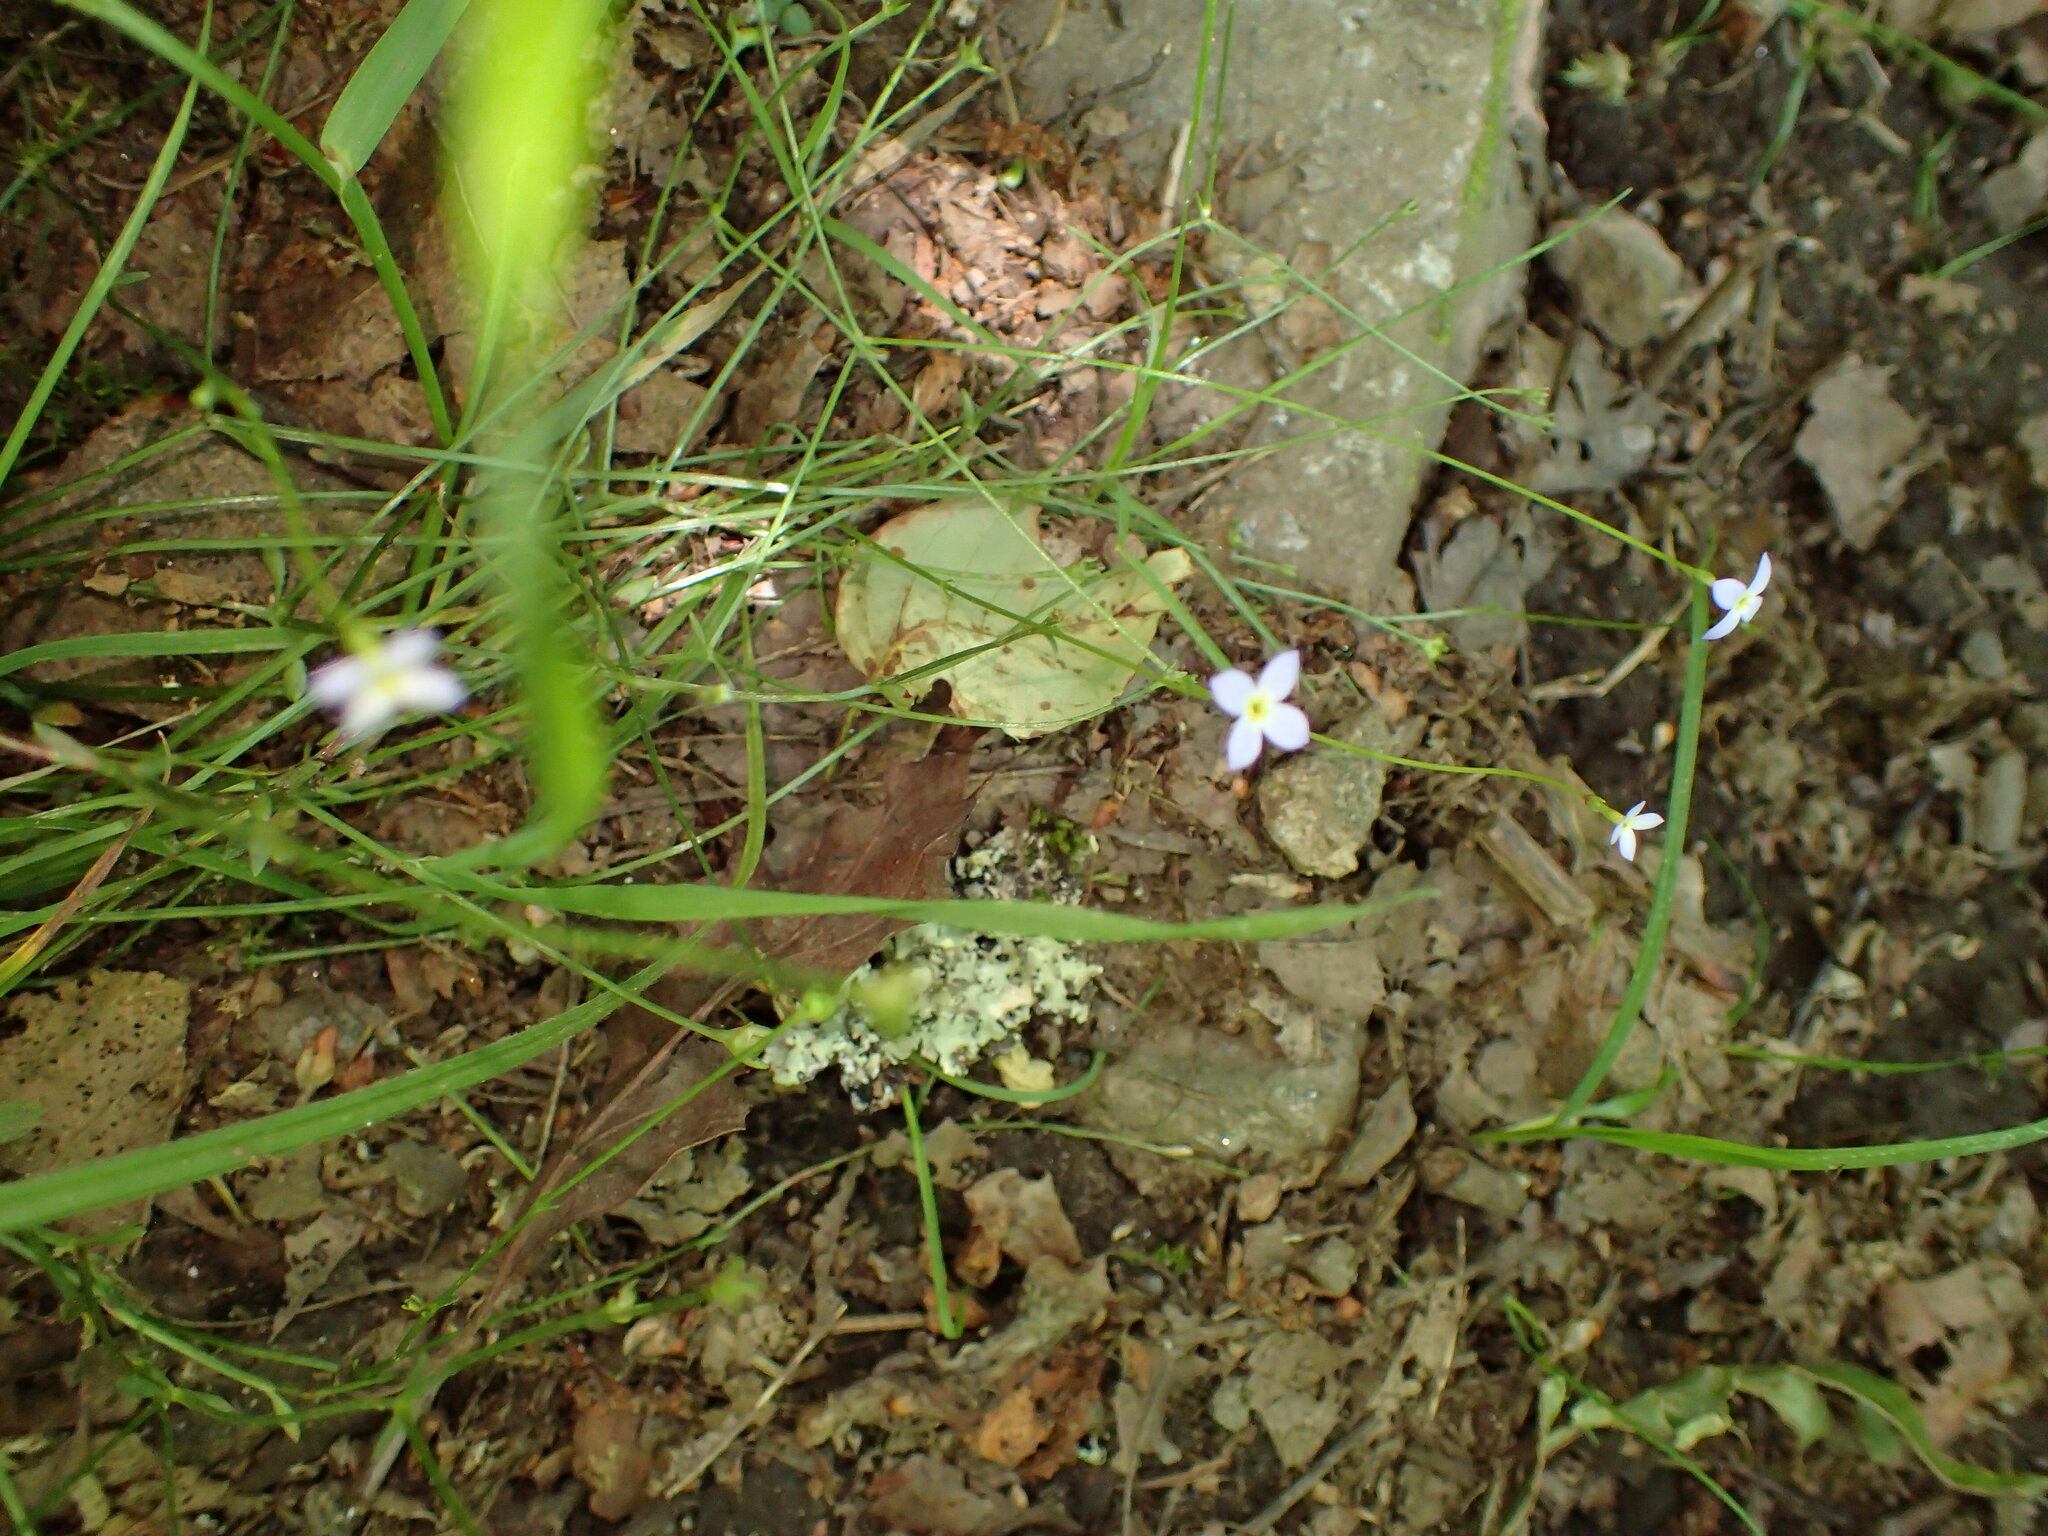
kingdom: Plantae
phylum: Tracheophyta
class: Magnoliopsida
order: Gentianales
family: Rubiaceae
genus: Houstonia
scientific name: Houstonia caerulea
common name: Bluets
